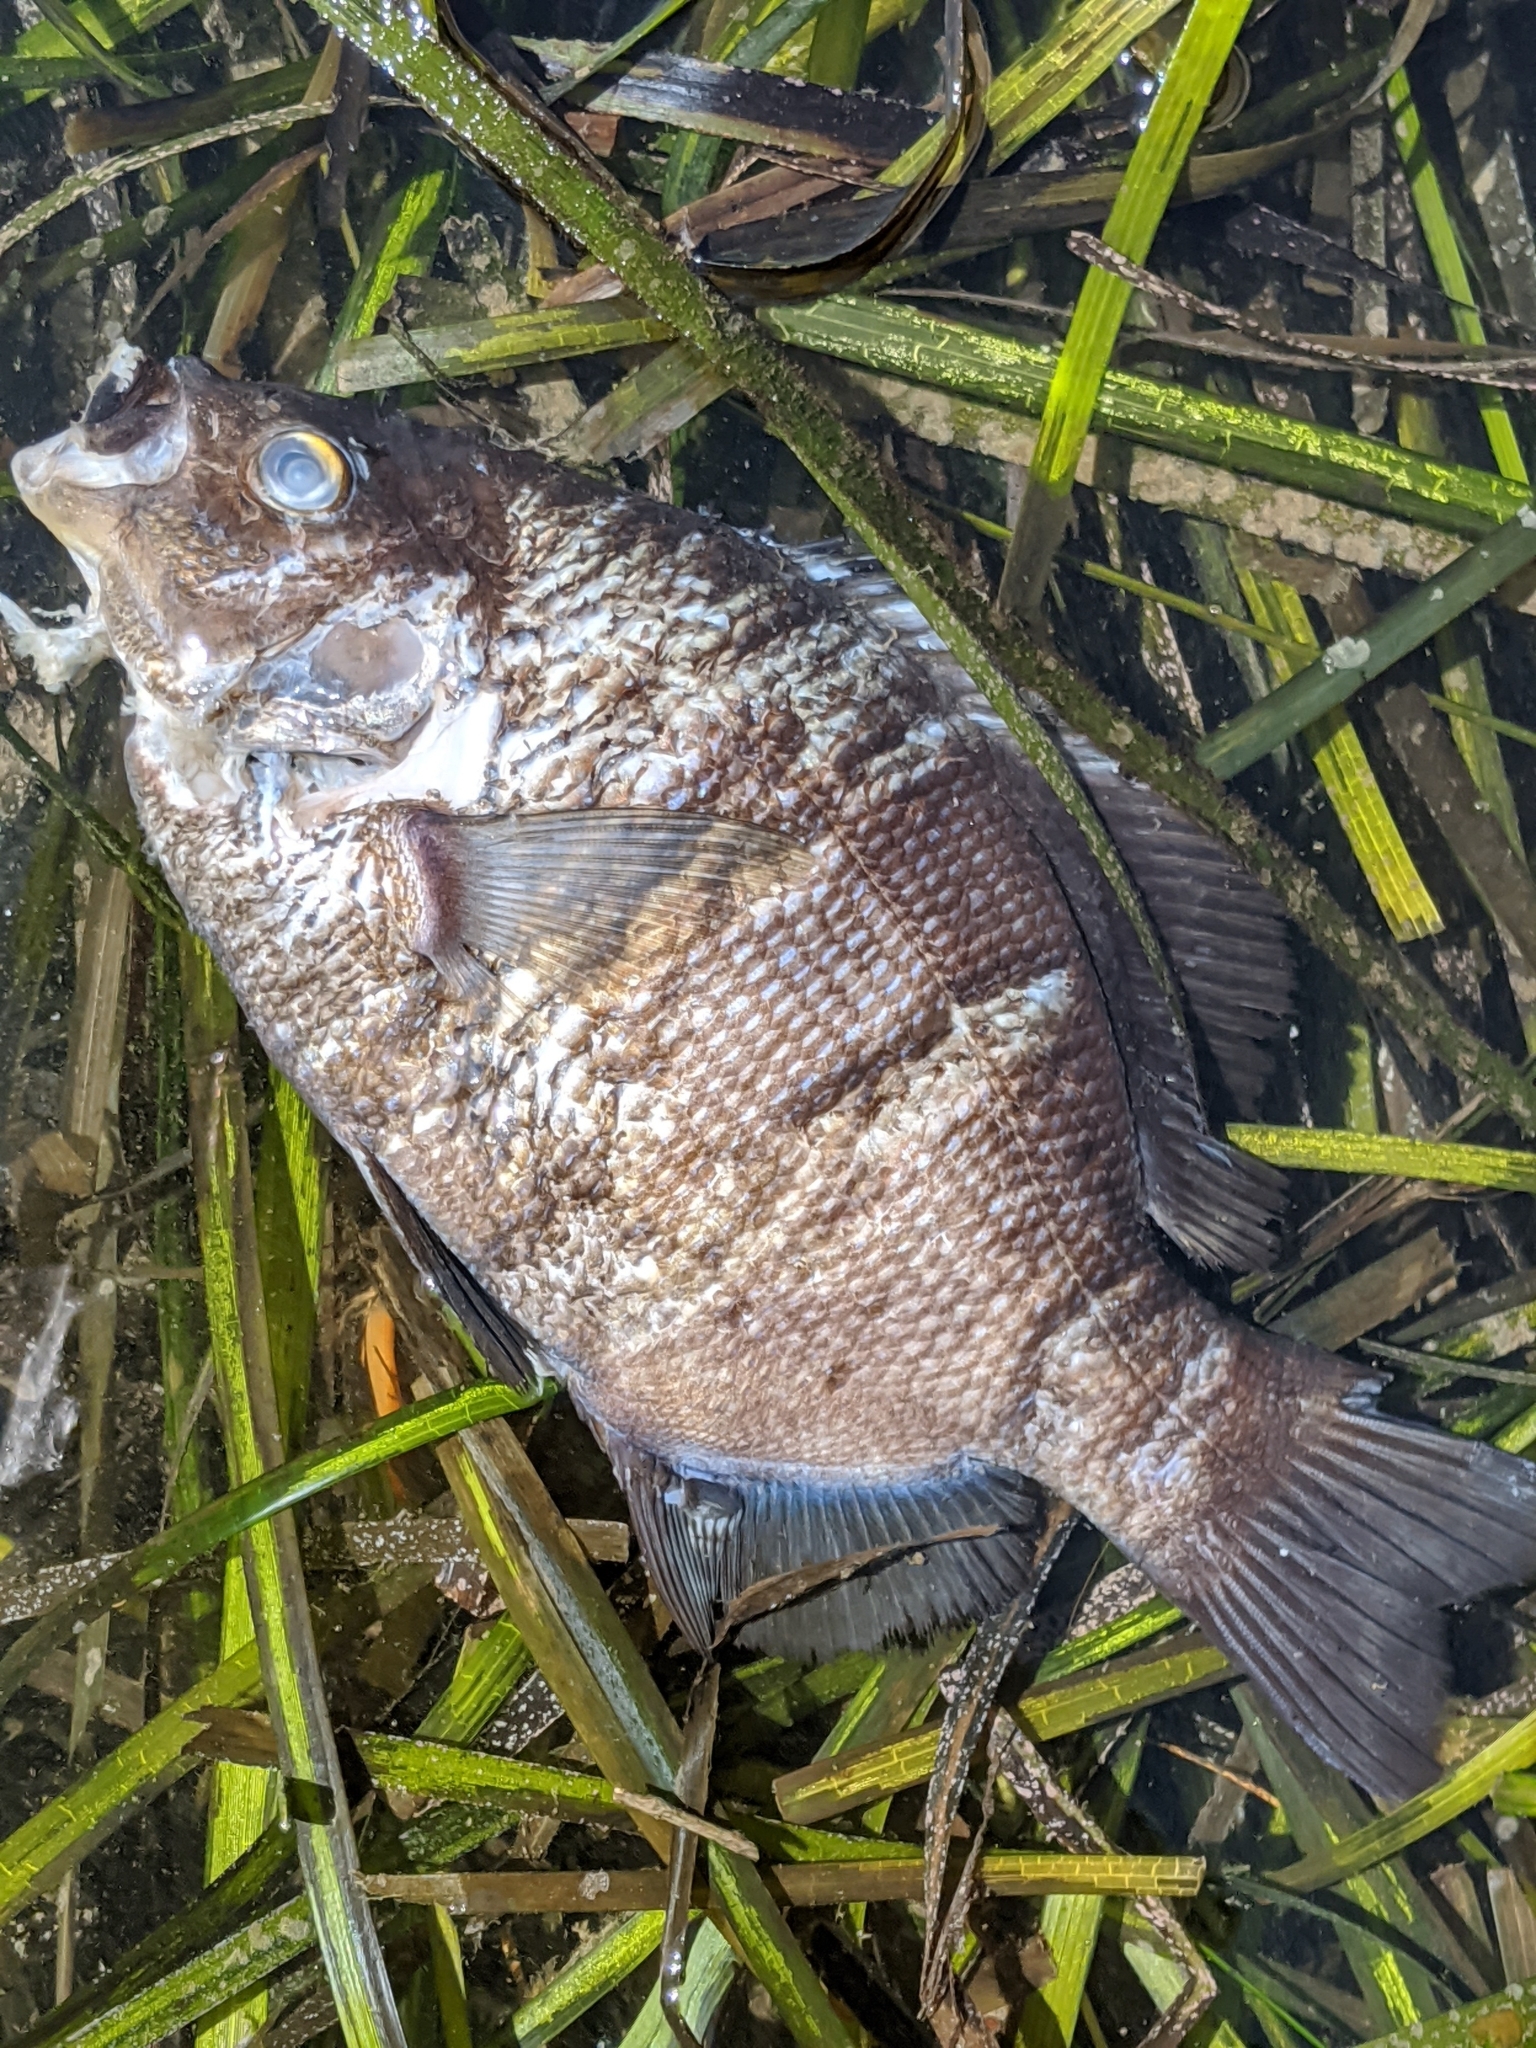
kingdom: Animalia
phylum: Chordata
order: Perciformes
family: Embiotocidae
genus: Embiotoca
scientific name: Embiotoca jacksoni
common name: Black perch
